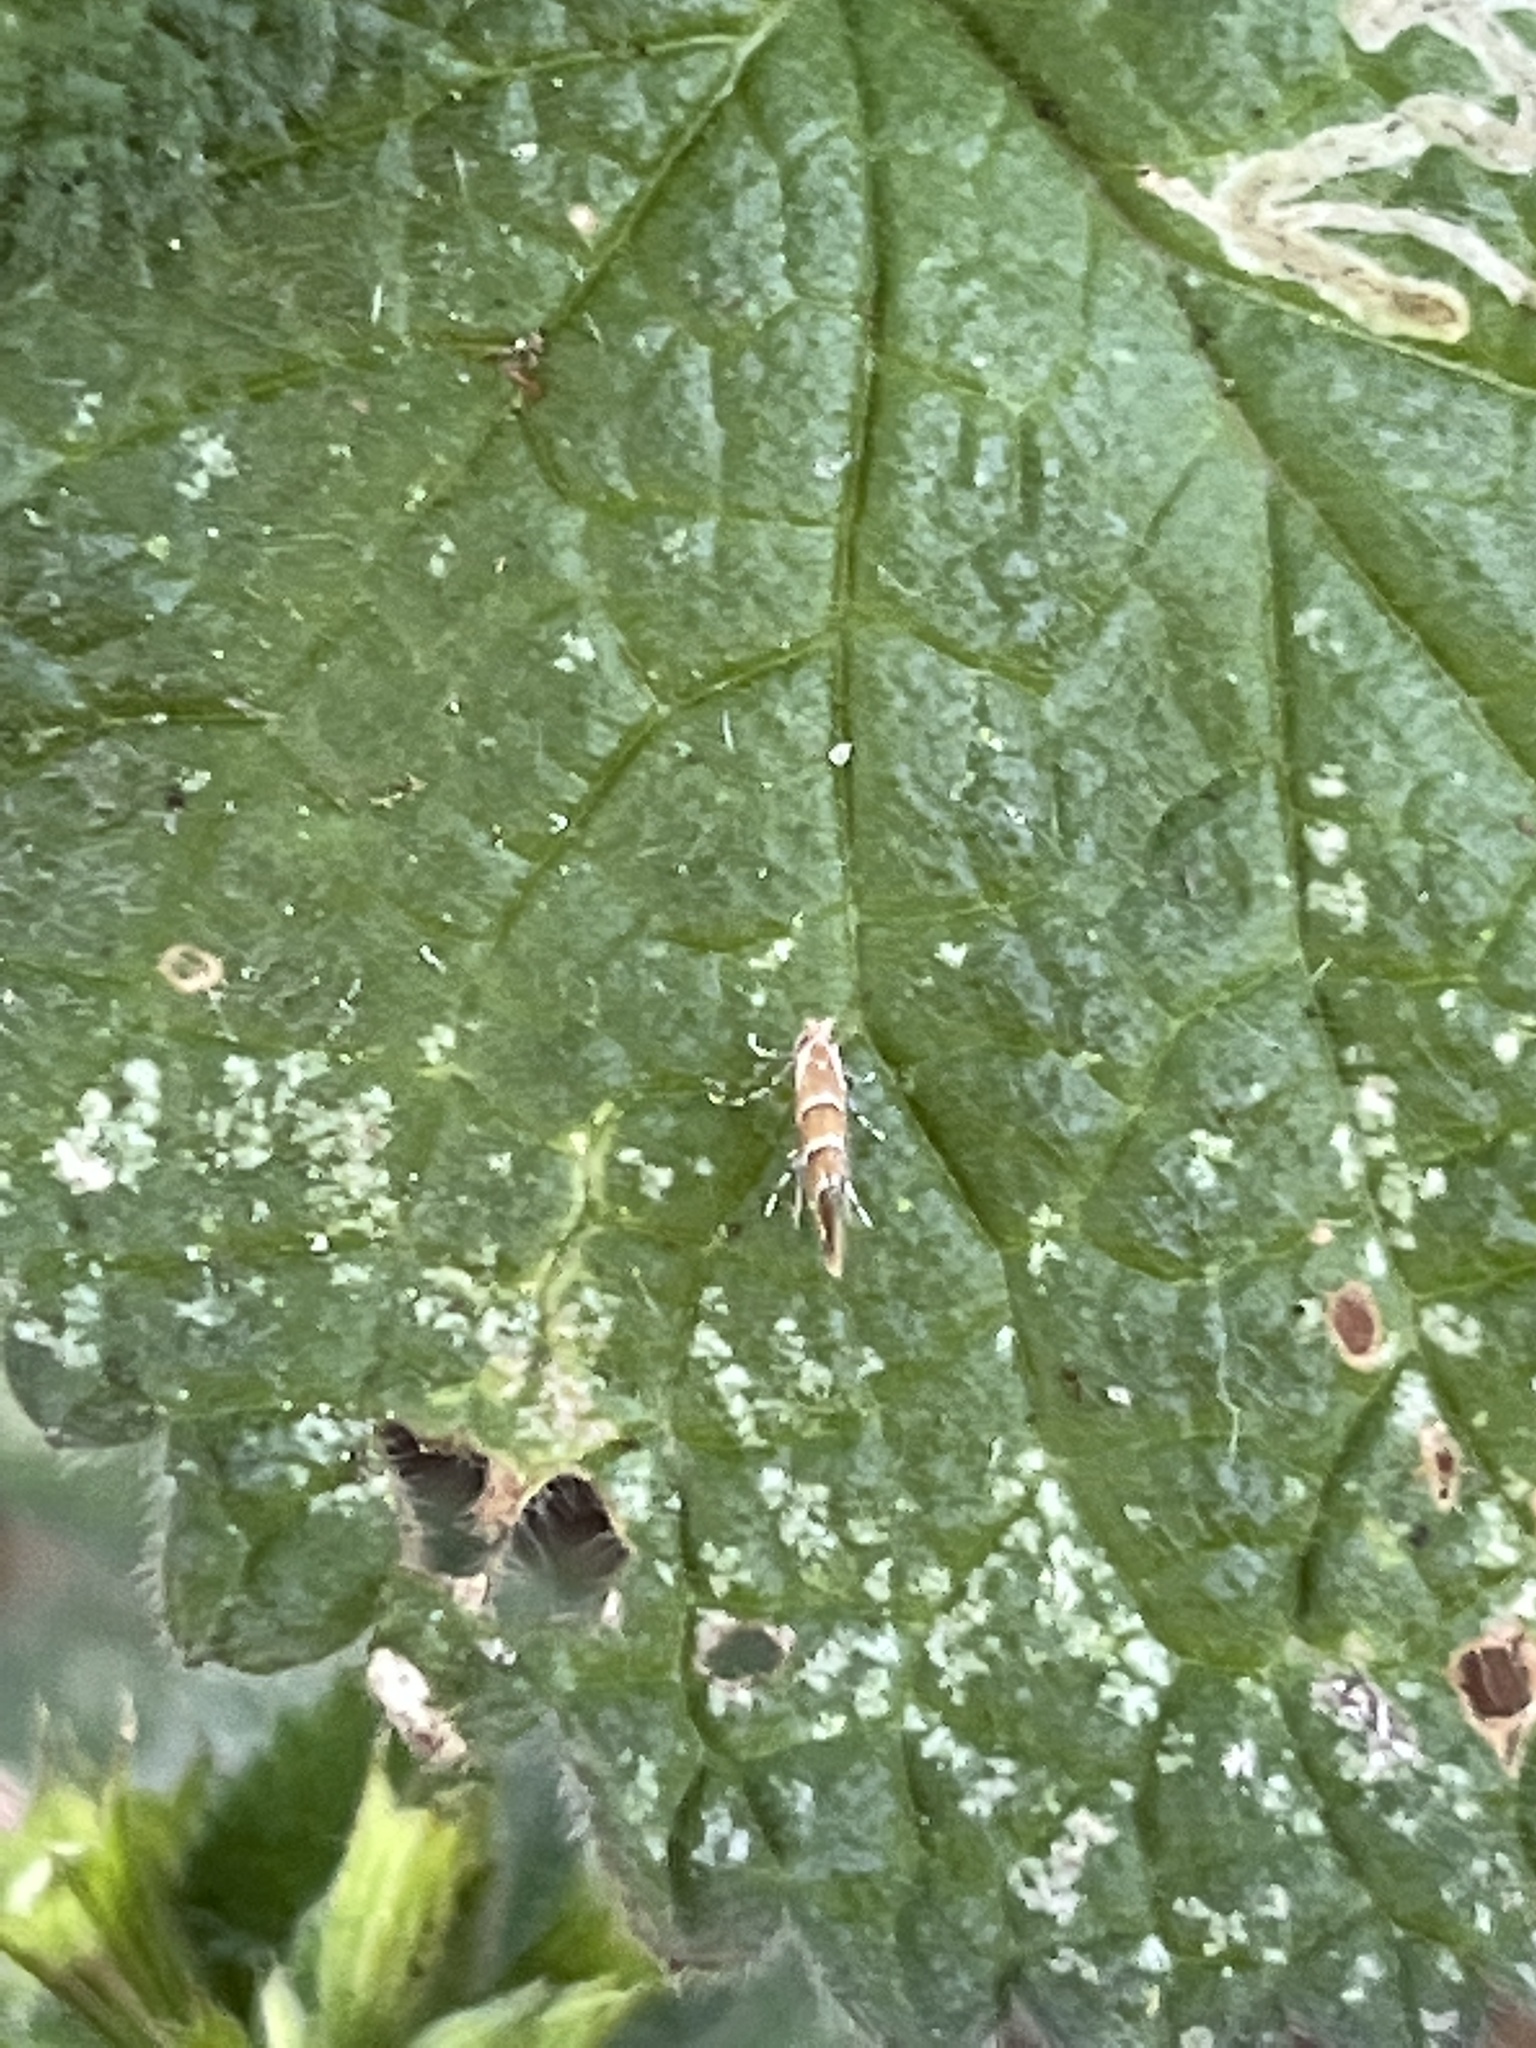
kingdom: Animalia
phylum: Arthropoda
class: Insecta
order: Lepidoptera
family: Gracillariidae
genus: Cameraria
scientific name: Cameraria ohridella
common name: Horse-chestnut leaf-miner
